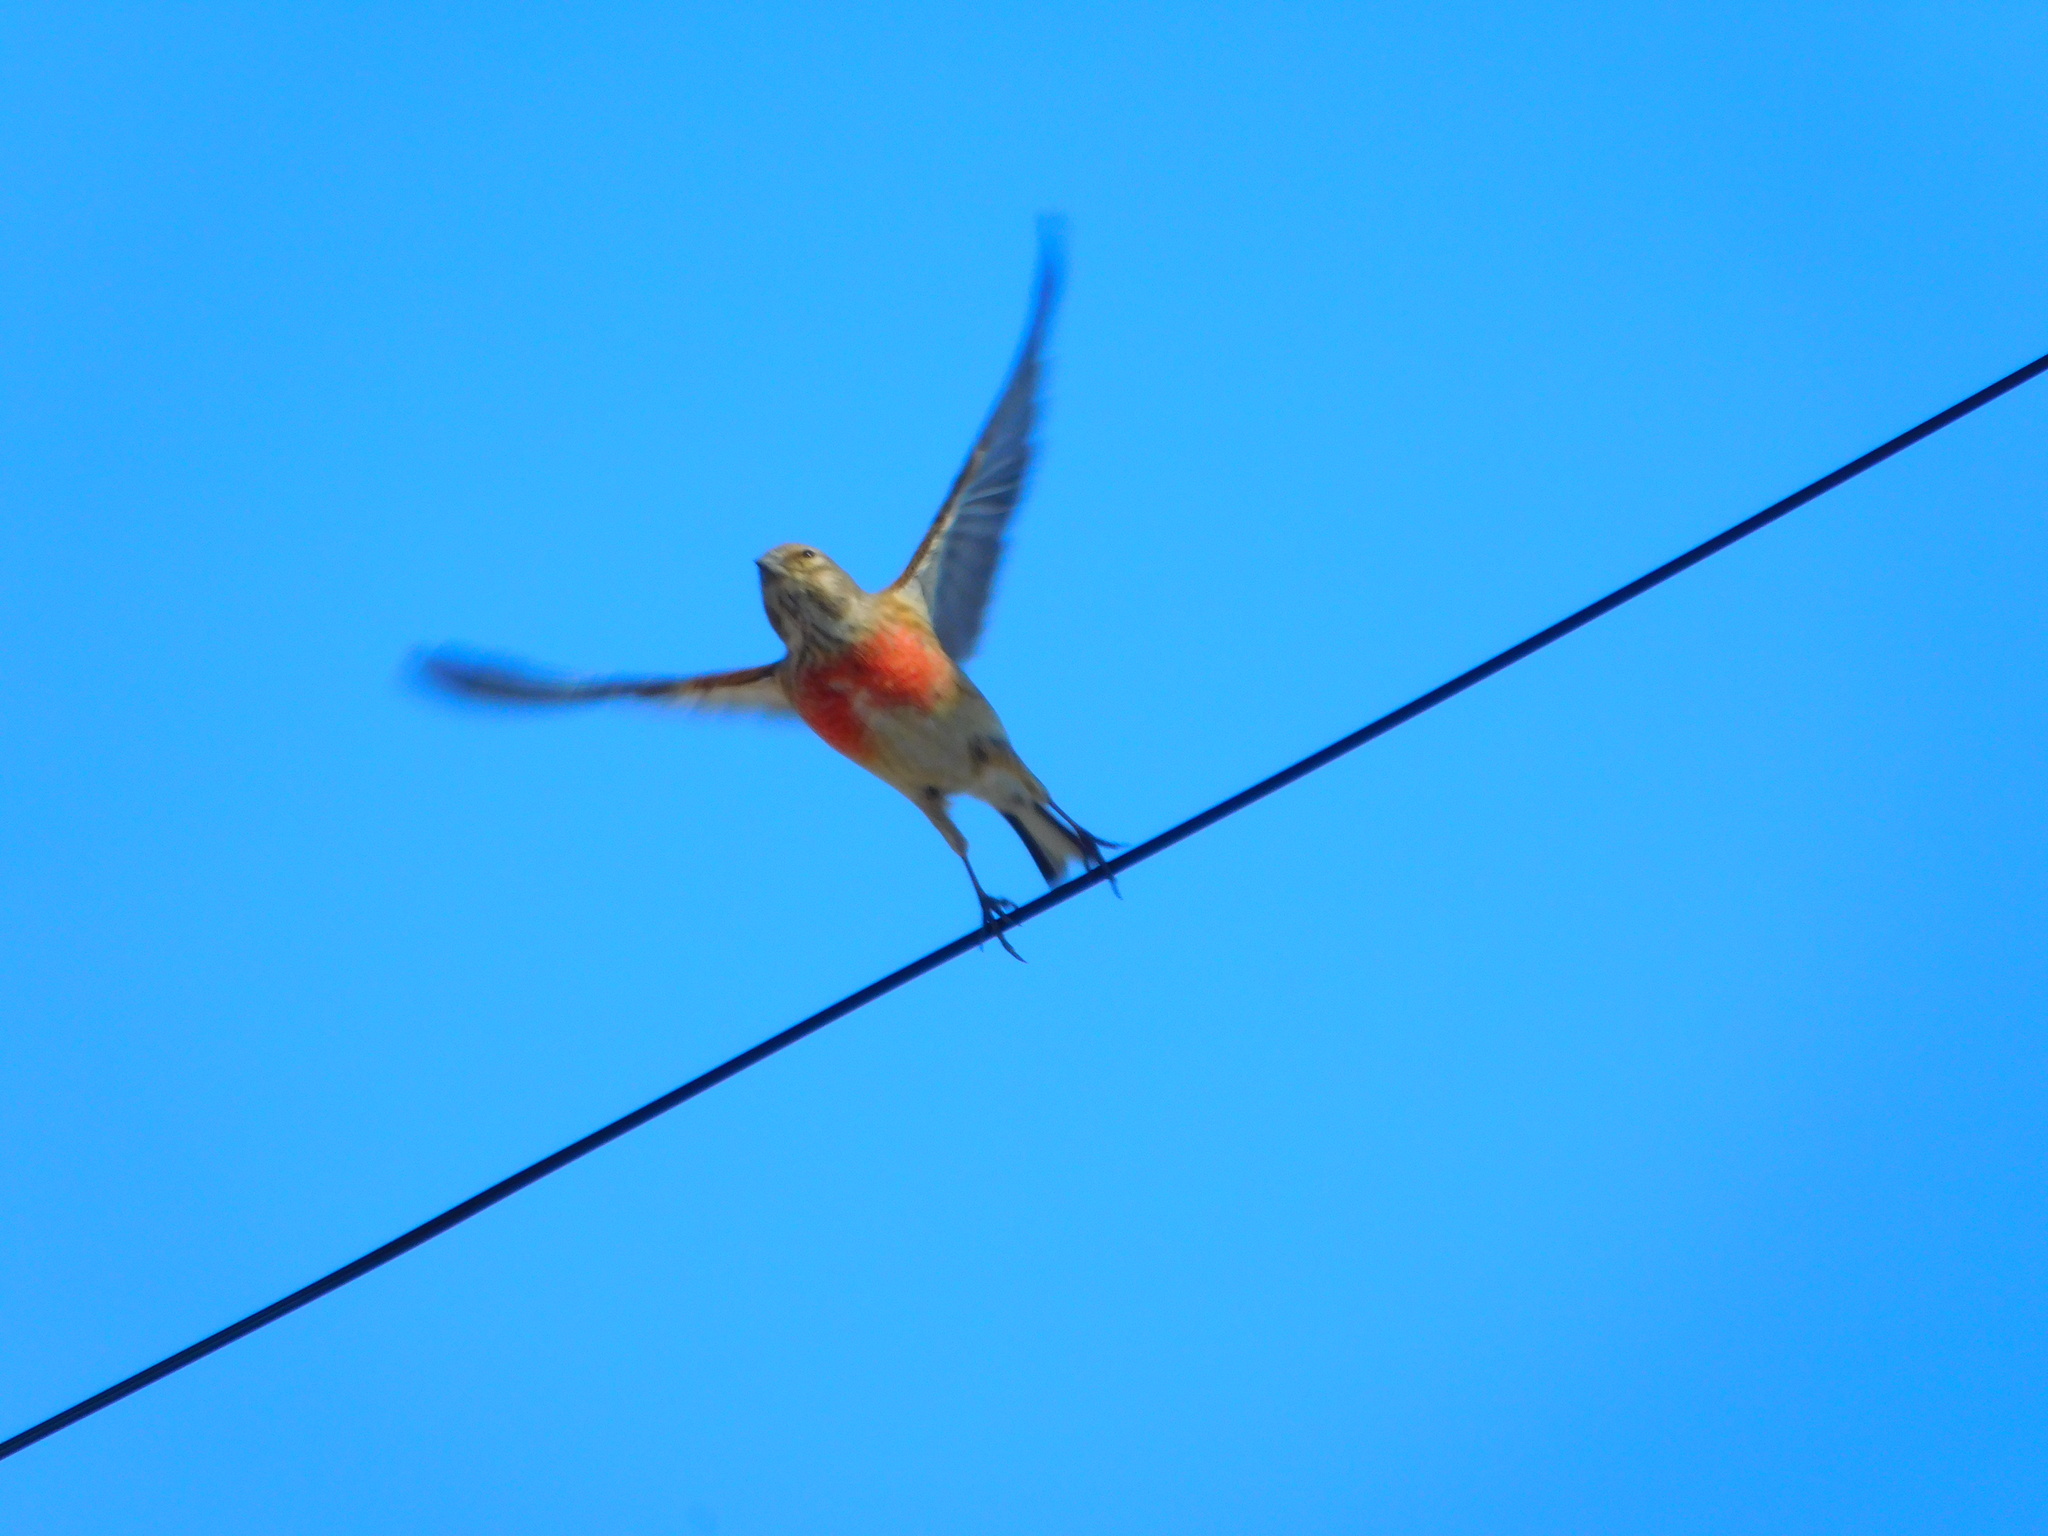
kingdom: Animalia
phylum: Chordata
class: Aves
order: Passeriformes
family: Fringillidae
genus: Linaria
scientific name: Linaria cannabina
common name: Common linnet
